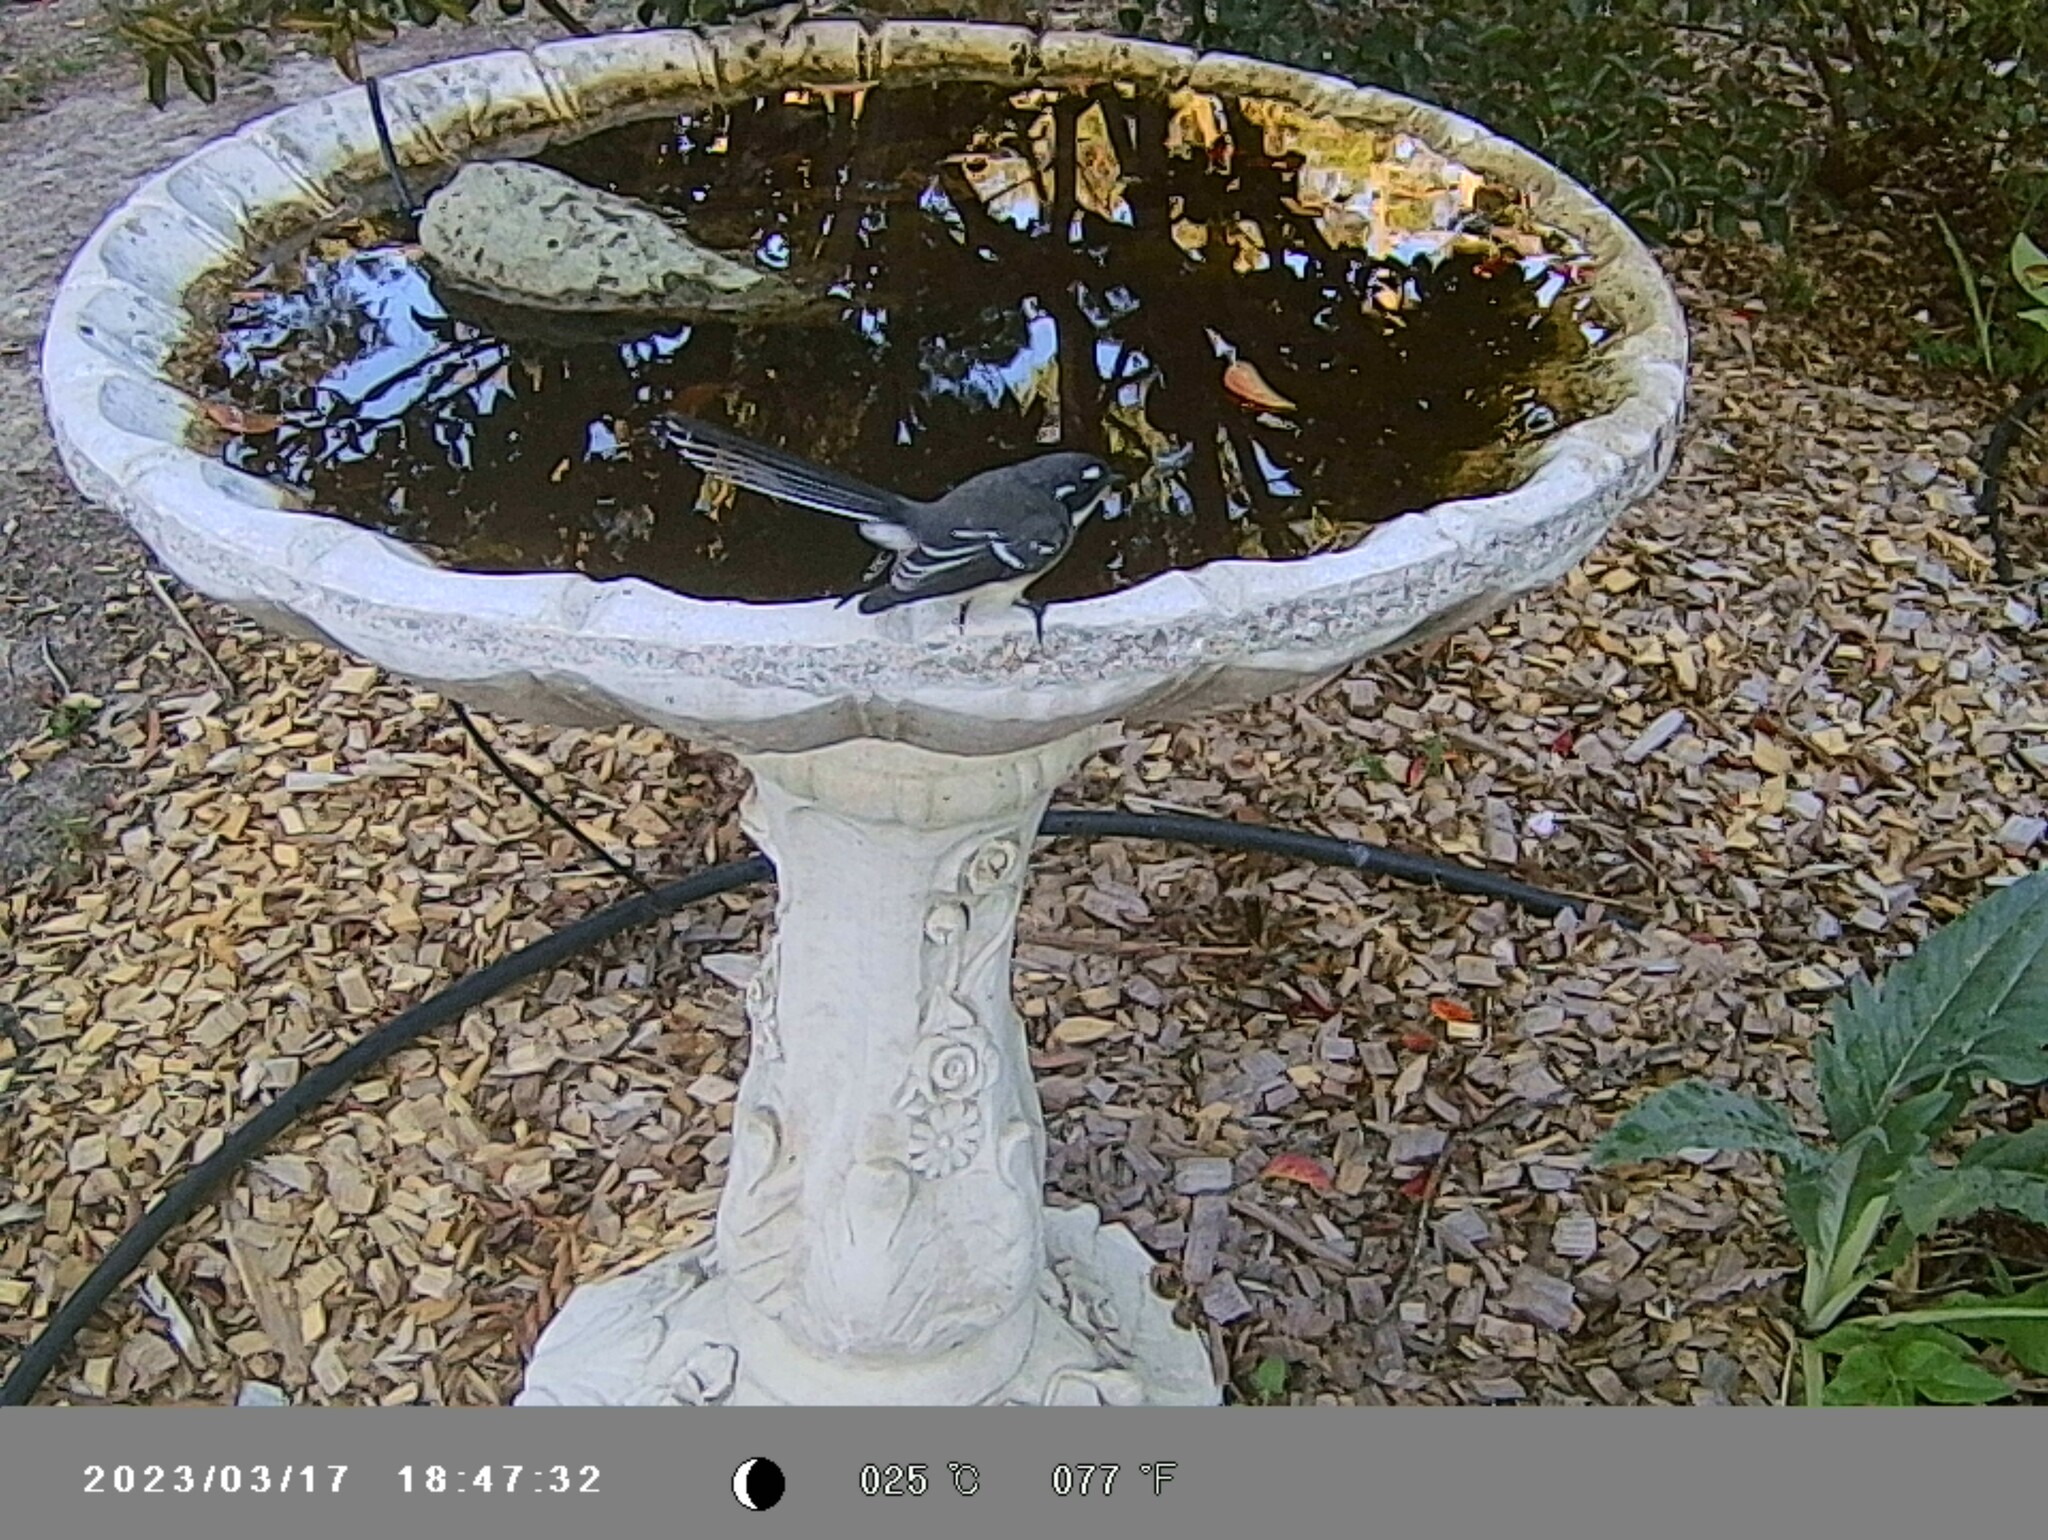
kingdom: Animalia
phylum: Chordata
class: Aves
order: Passeriformes
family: Rhipiduridae
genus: Rhipidura
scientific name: Rhipidura albiscapa
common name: Grey fantail
